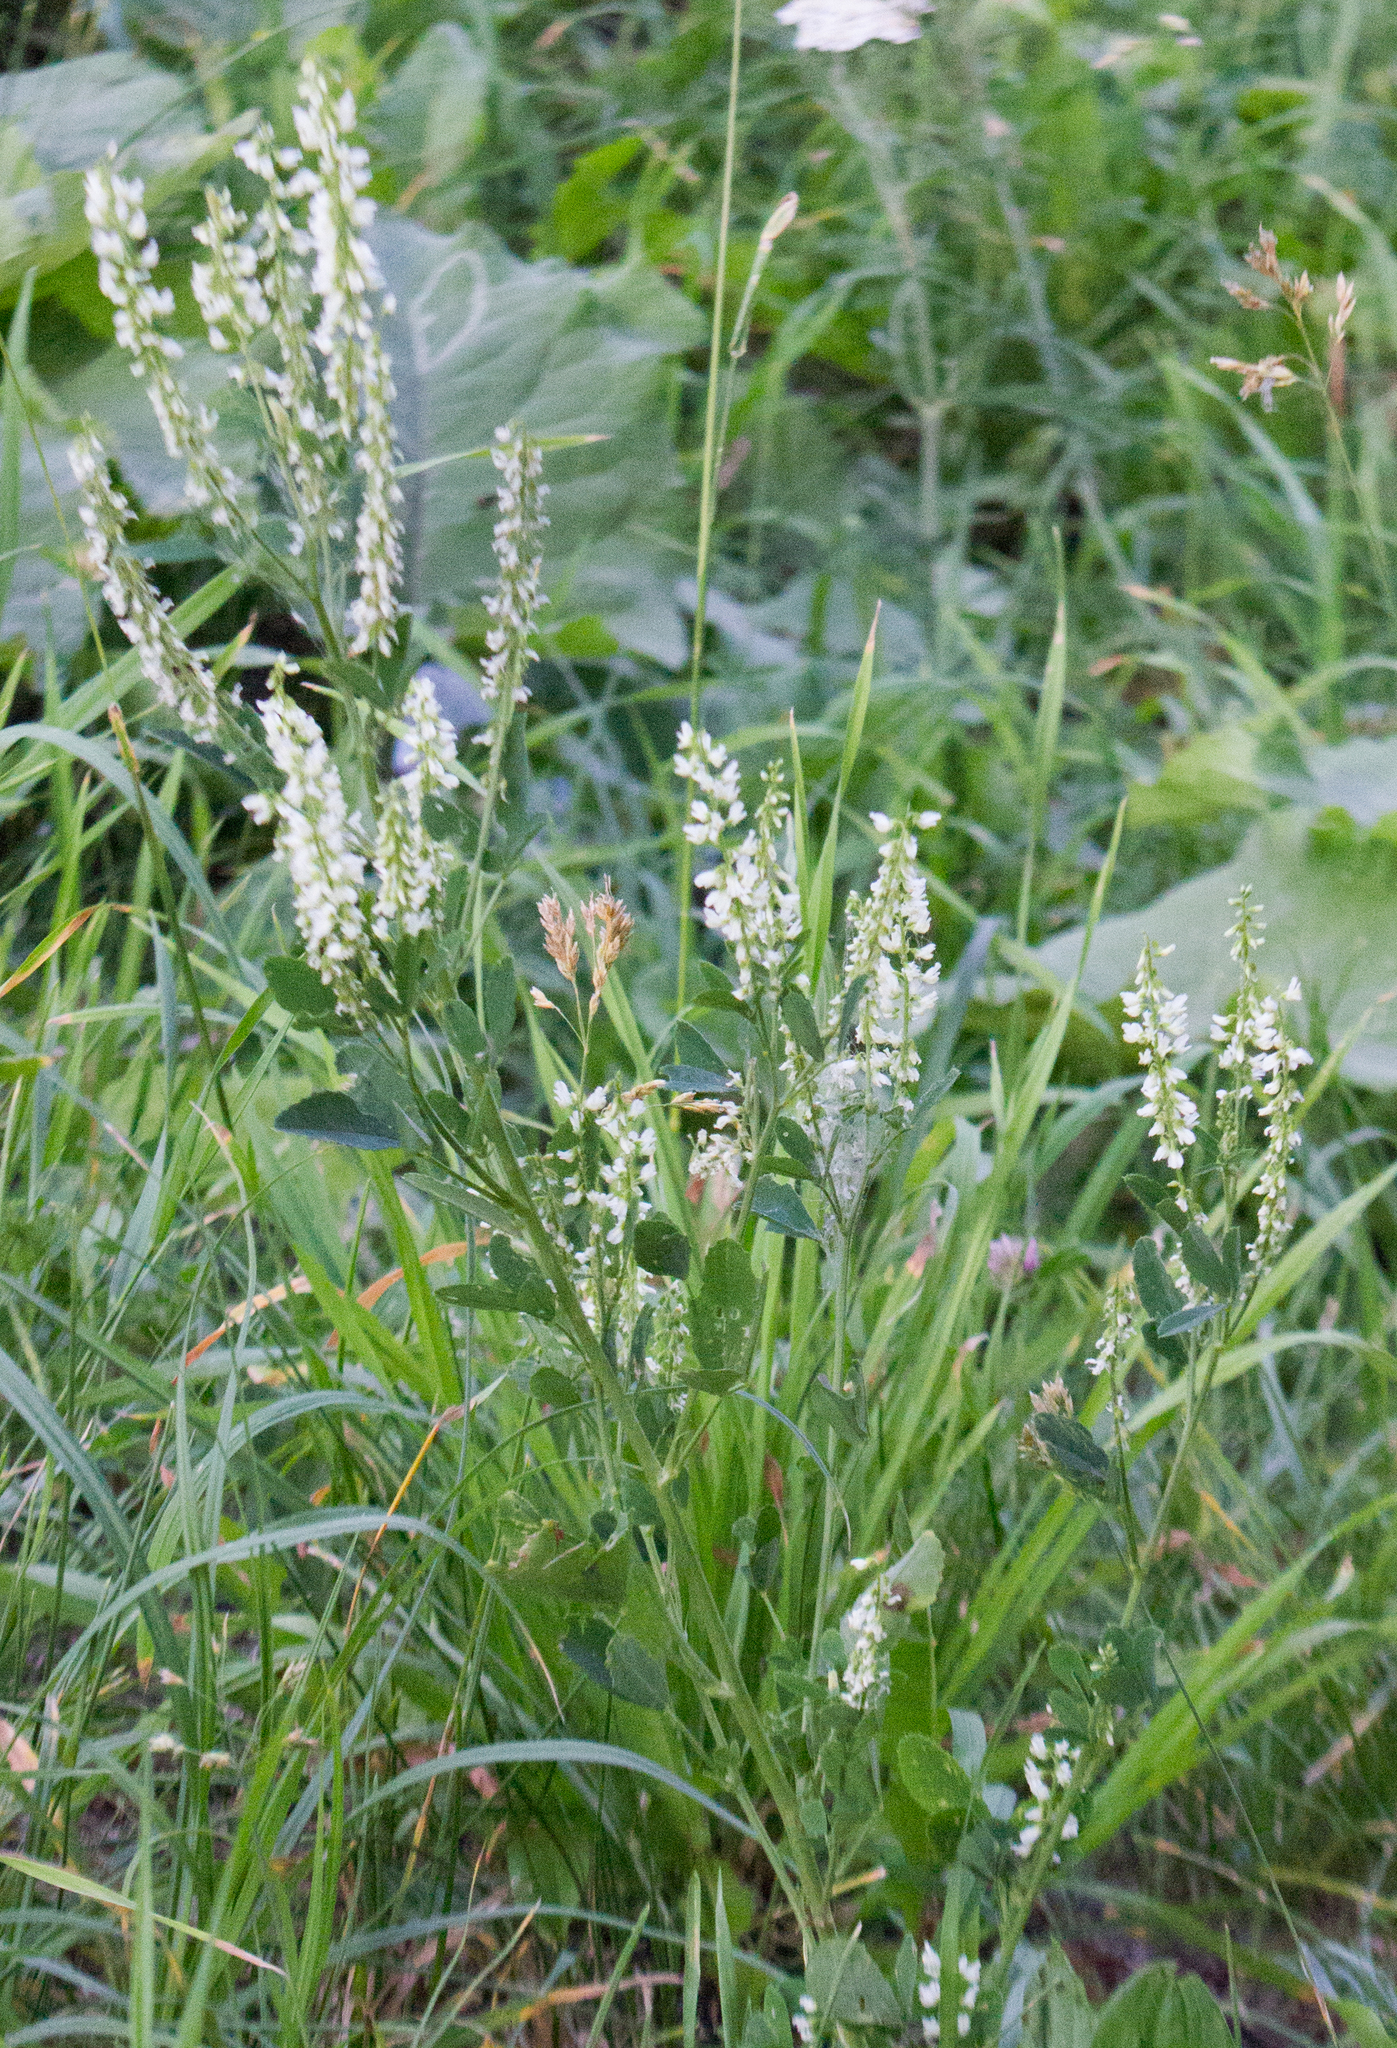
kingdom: Plantae
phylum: Tracheophyta
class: Magnoliopsida
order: Fabales
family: Fabaceae
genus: Melilotus
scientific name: Melilotus albus
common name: White melilot
